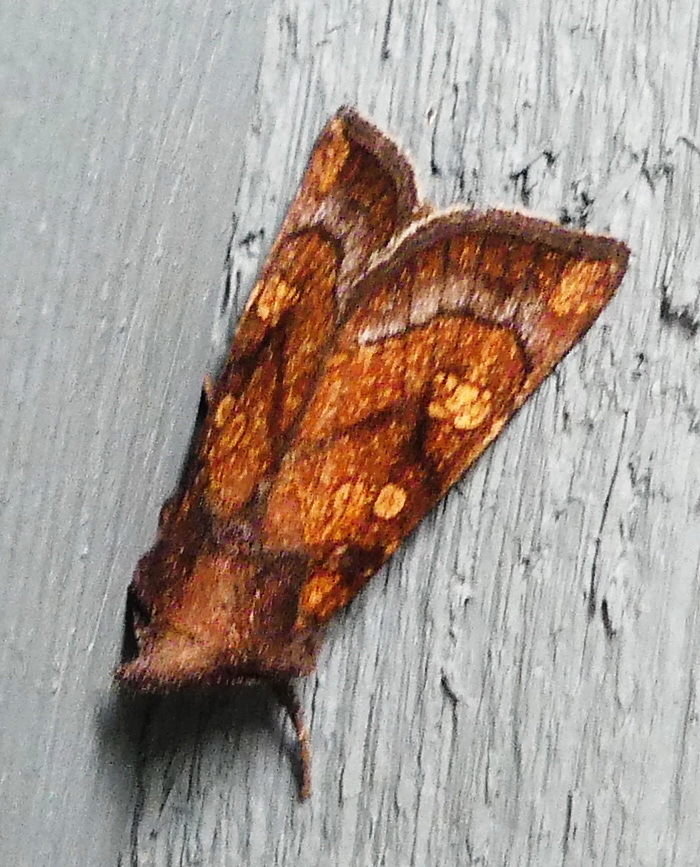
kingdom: Animalia
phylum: Arthropoda
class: Insecta
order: Lepidoptera
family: Noctuidae
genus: Papaipema
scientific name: Papaipema impecuniosa
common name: Aster borer moth
